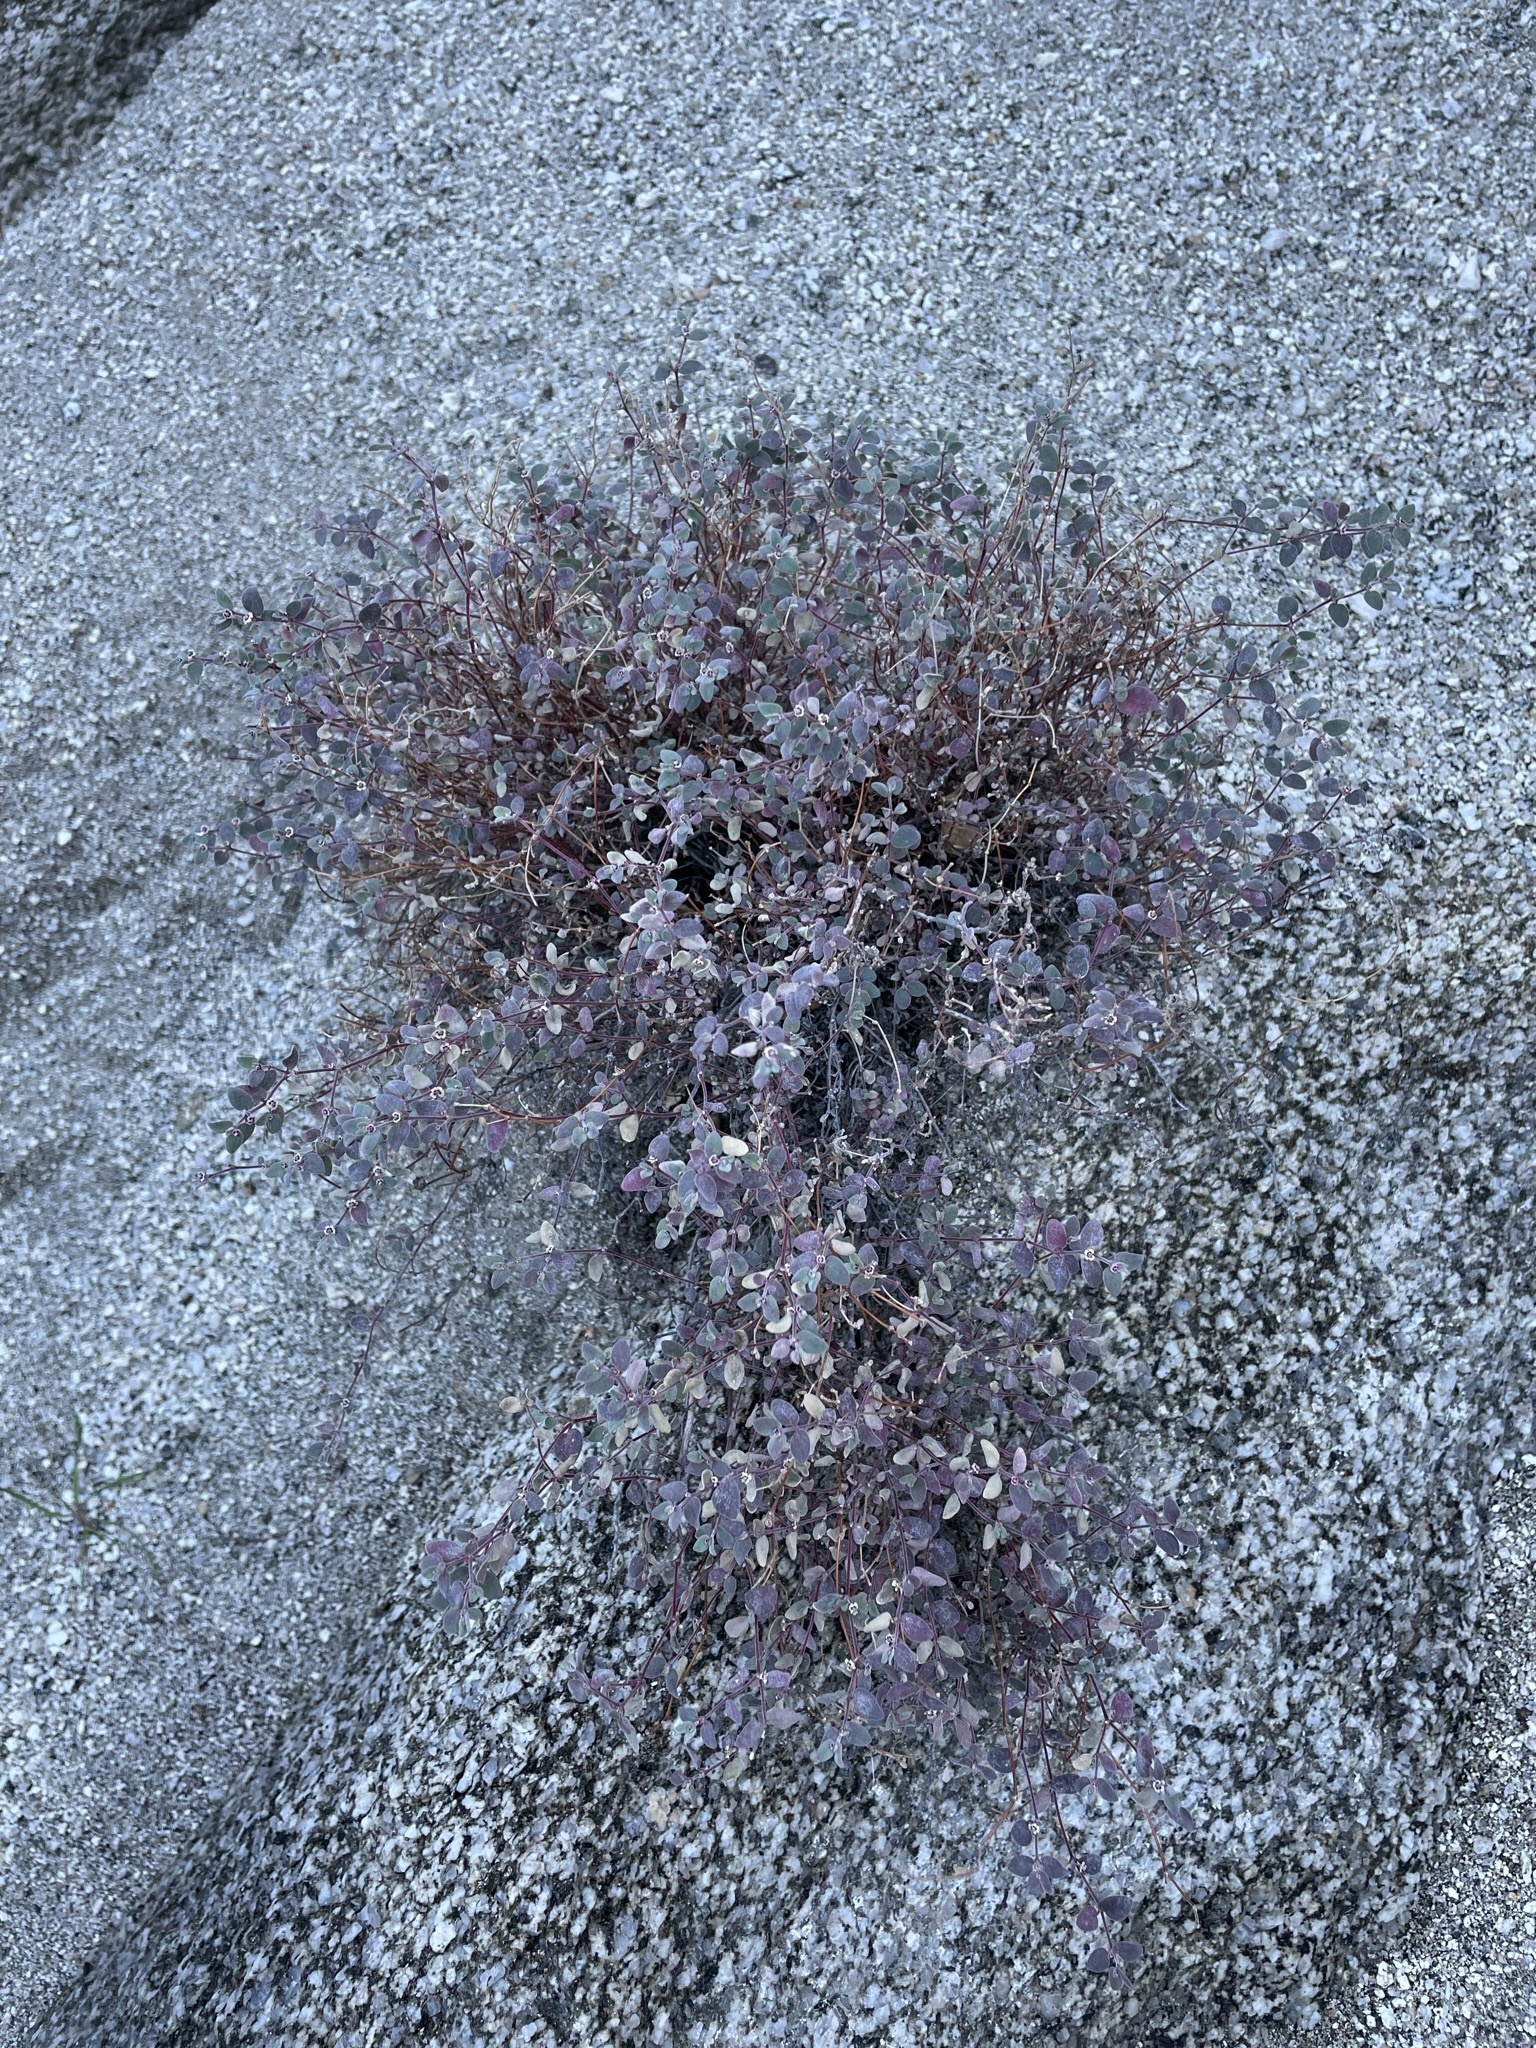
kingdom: Plantae
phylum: Tracheophyta
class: Magnoliopsida
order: Malpighiales
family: Euphorbiaceae
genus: Euphorbia
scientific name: Euphorbia melanadenia
